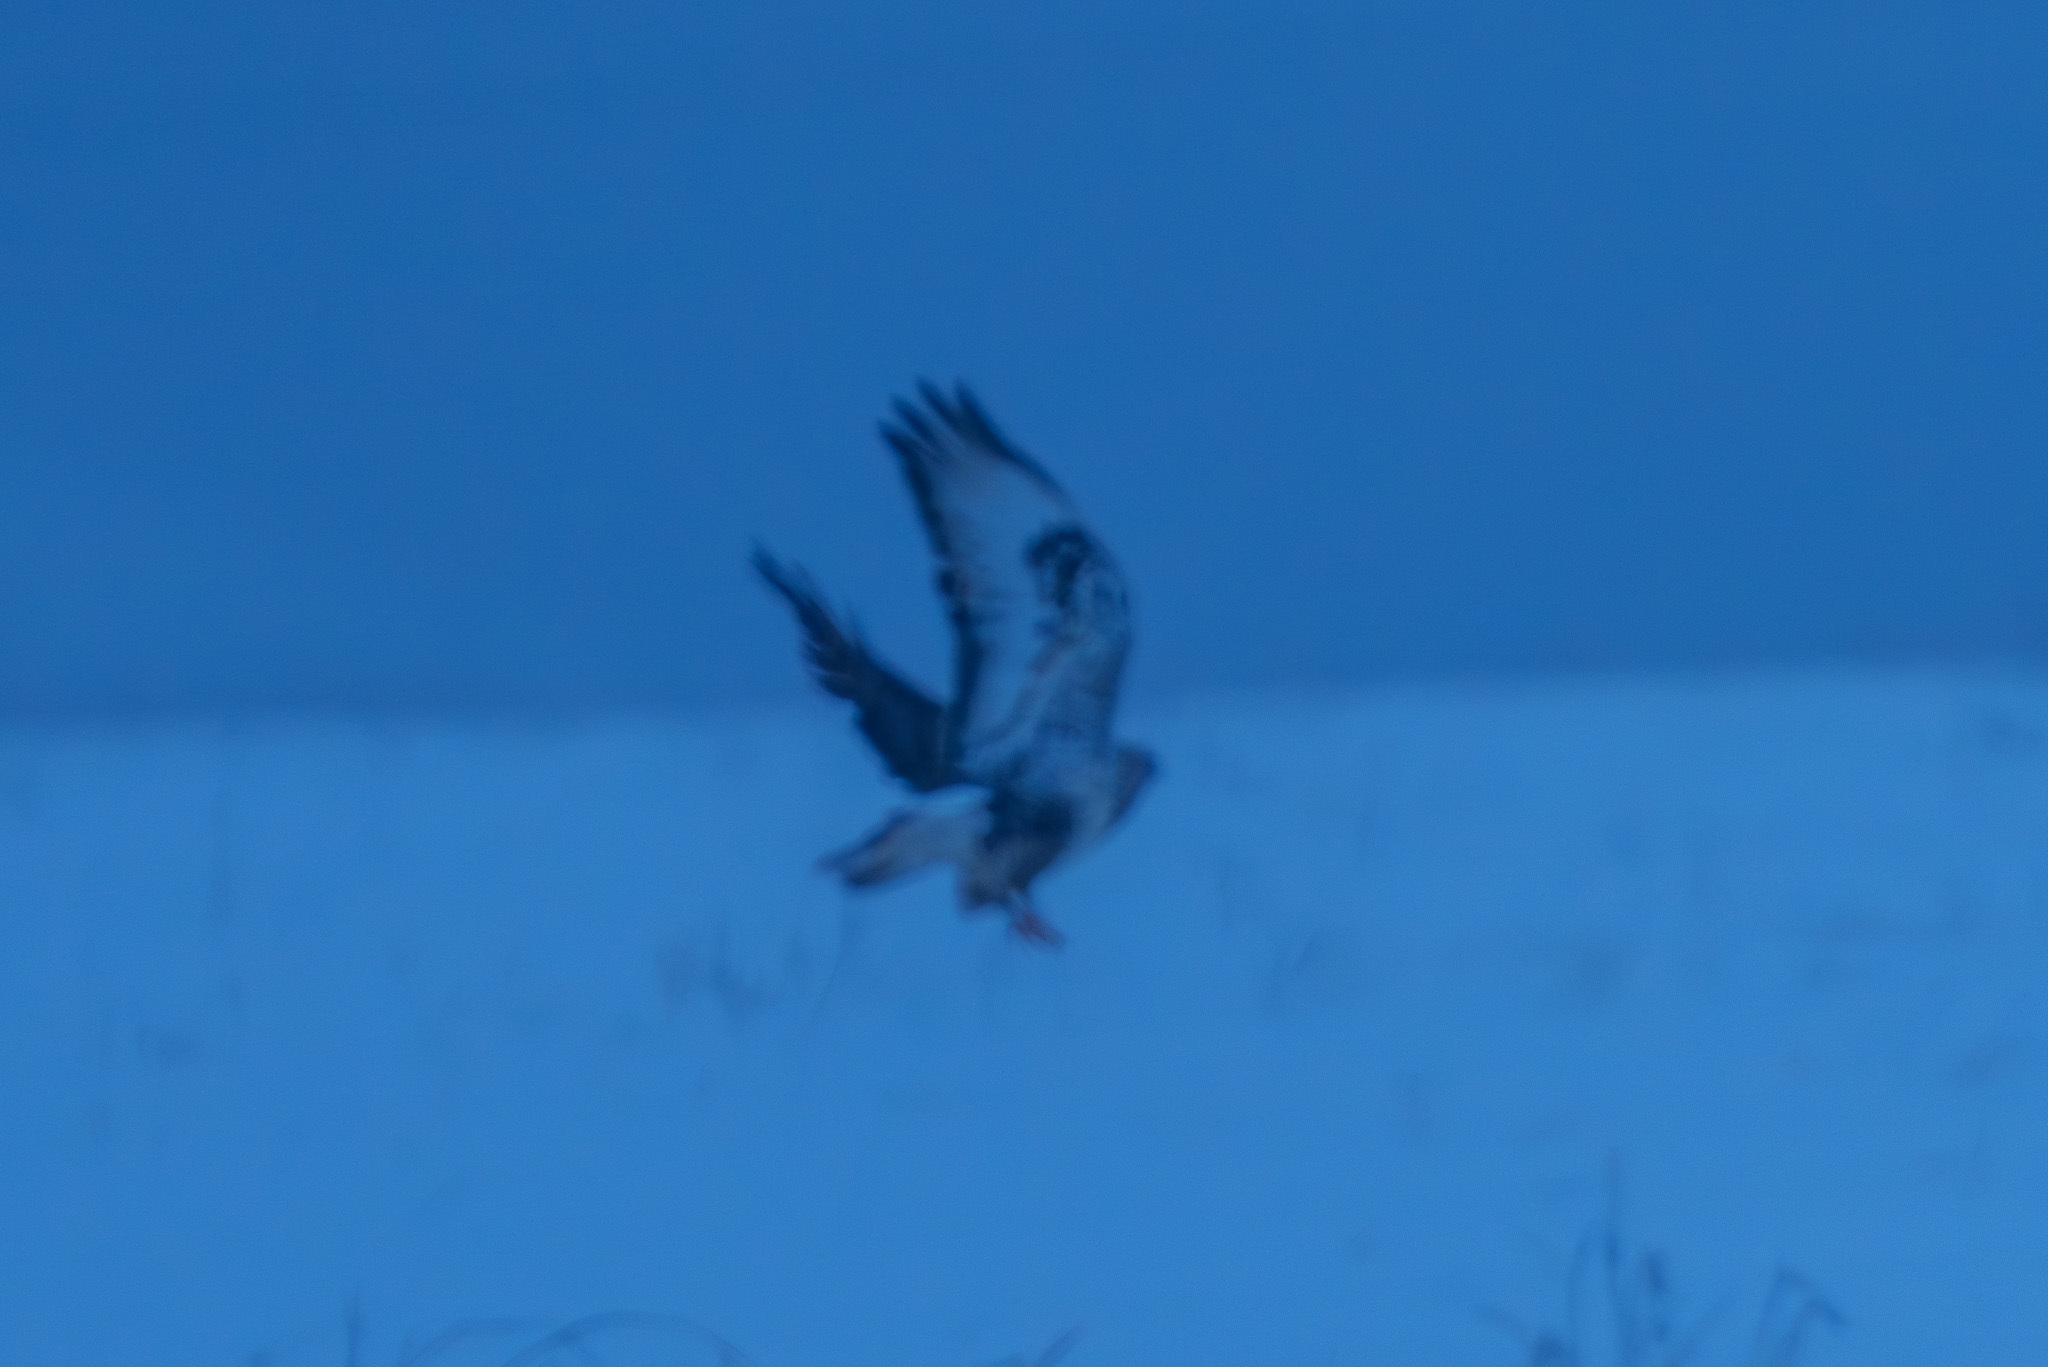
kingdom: Animalia
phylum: Chordata
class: Aves
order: Accipitriformes
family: Accipitridae
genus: Buteo
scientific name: Buteo lagopus
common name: Rough-legged buzzard
